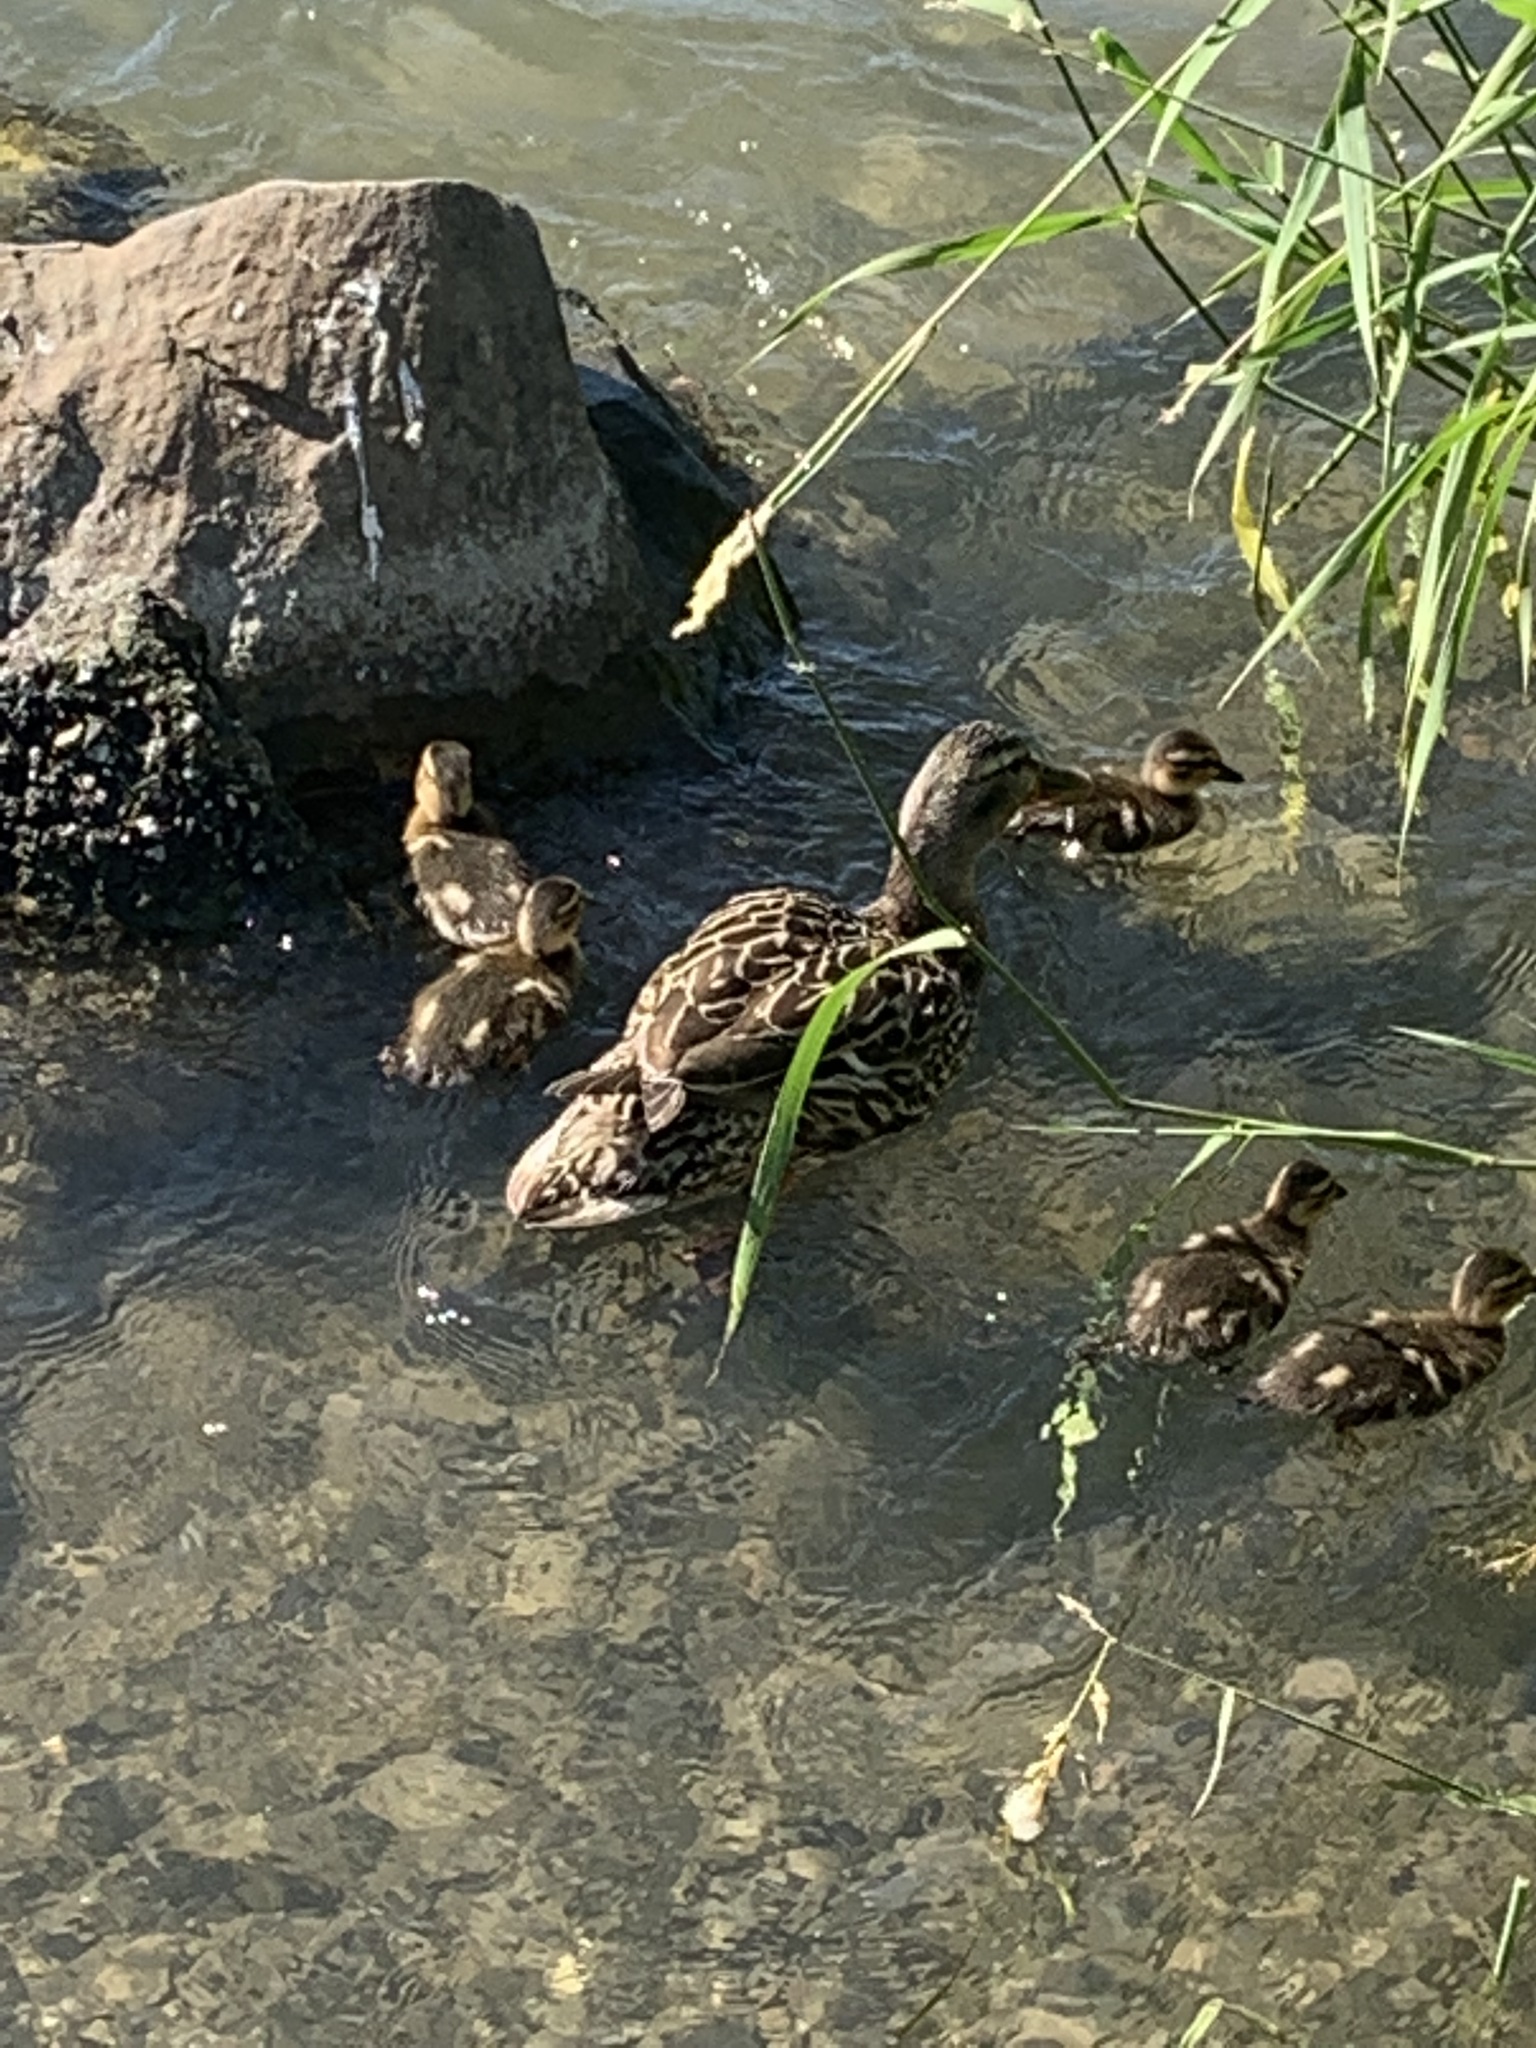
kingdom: Animalia
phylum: Chordata
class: Aves
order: Anseriformes
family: Anatidae
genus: Anas
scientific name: Anas platyrhynchos
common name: Mallard
